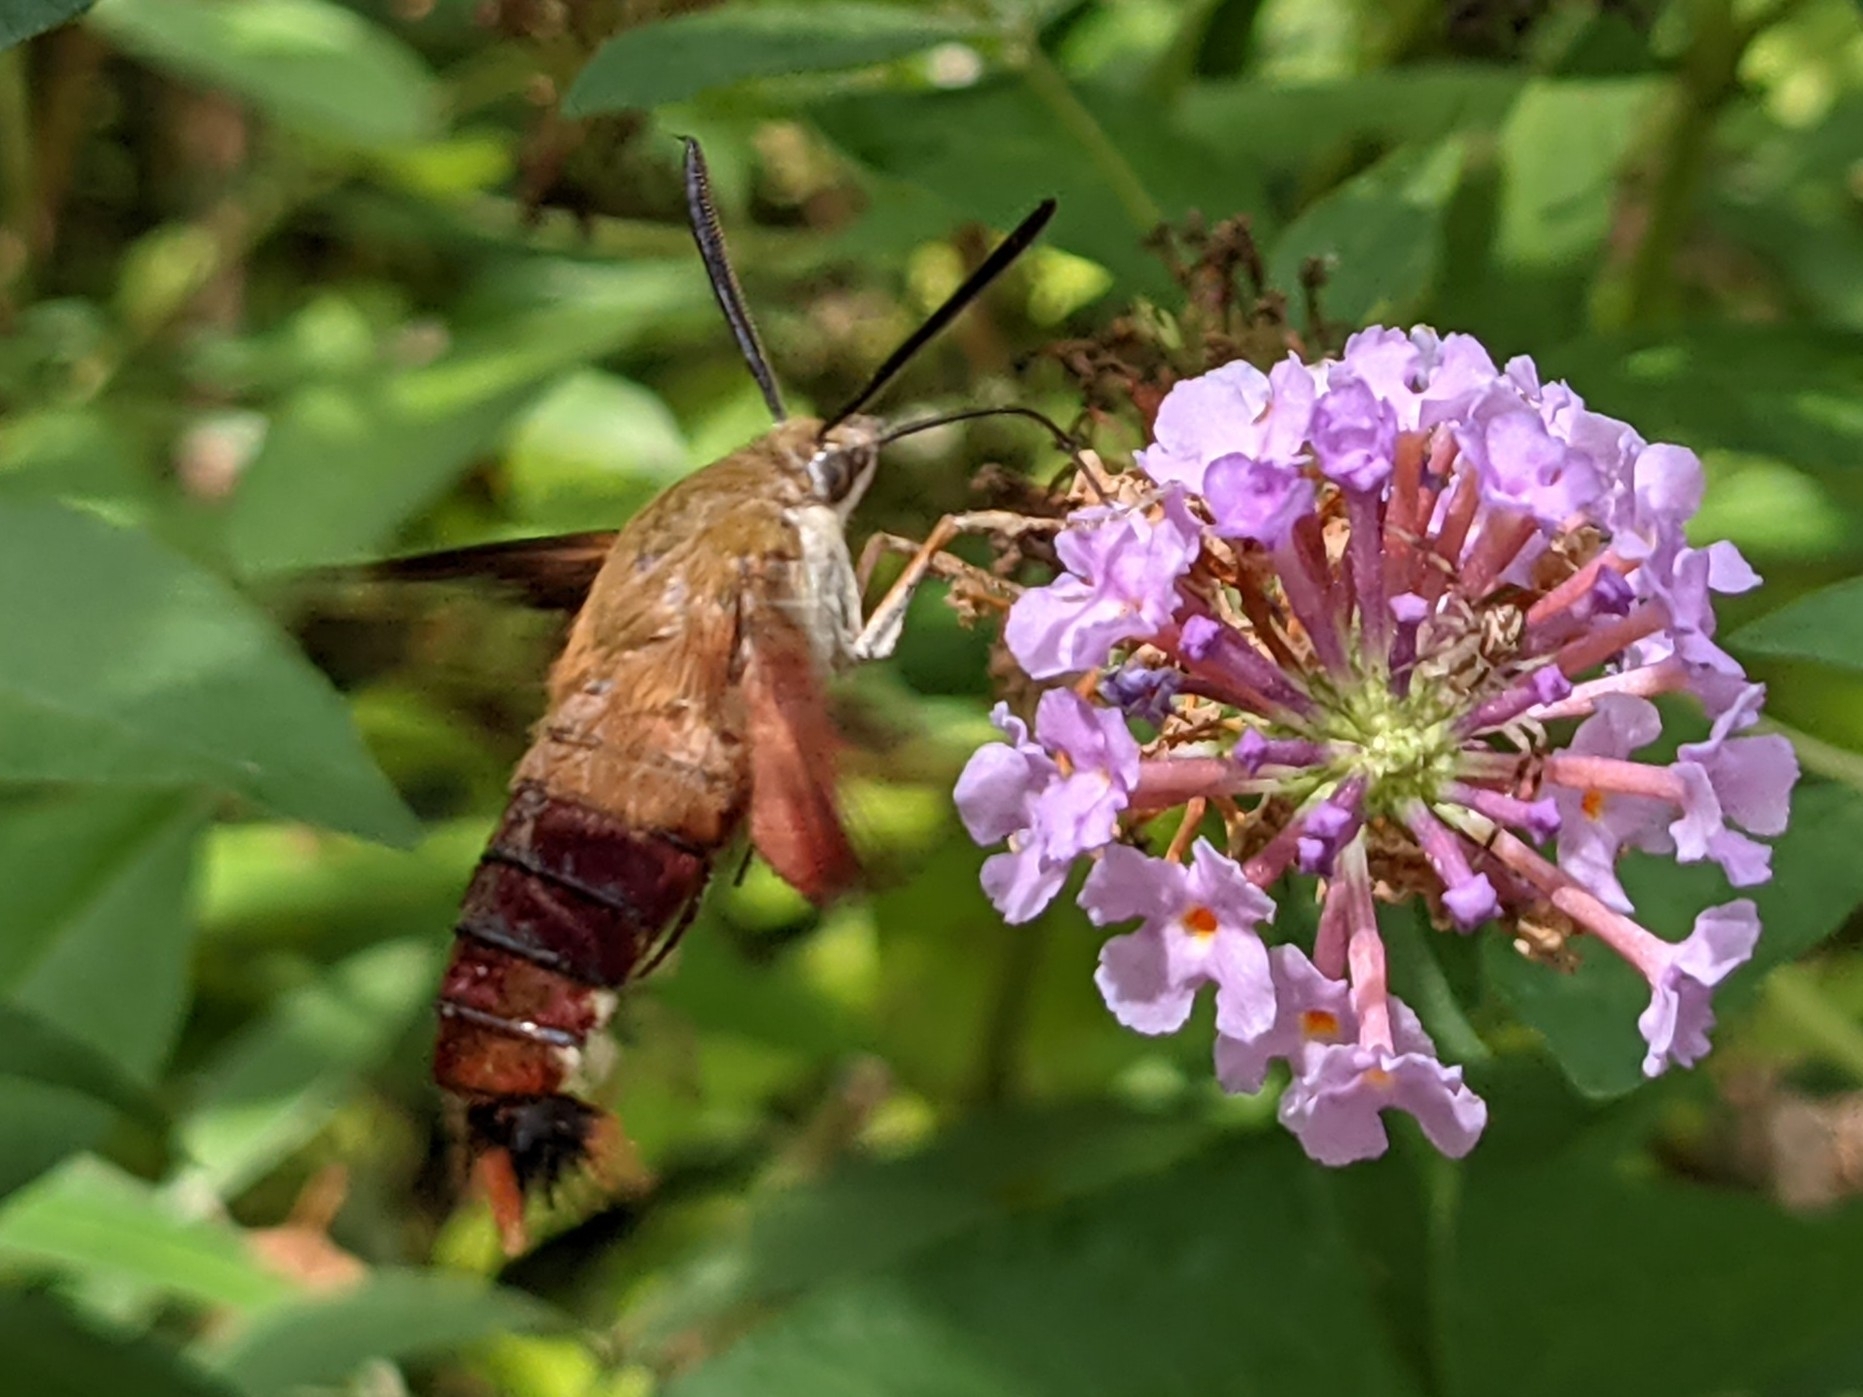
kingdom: Animalia
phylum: Arthropoda
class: Insecta
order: Lepidoptera
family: Sphingidae
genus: Hemaris
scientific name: Hemaris thysbe
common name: Common clear-wing
